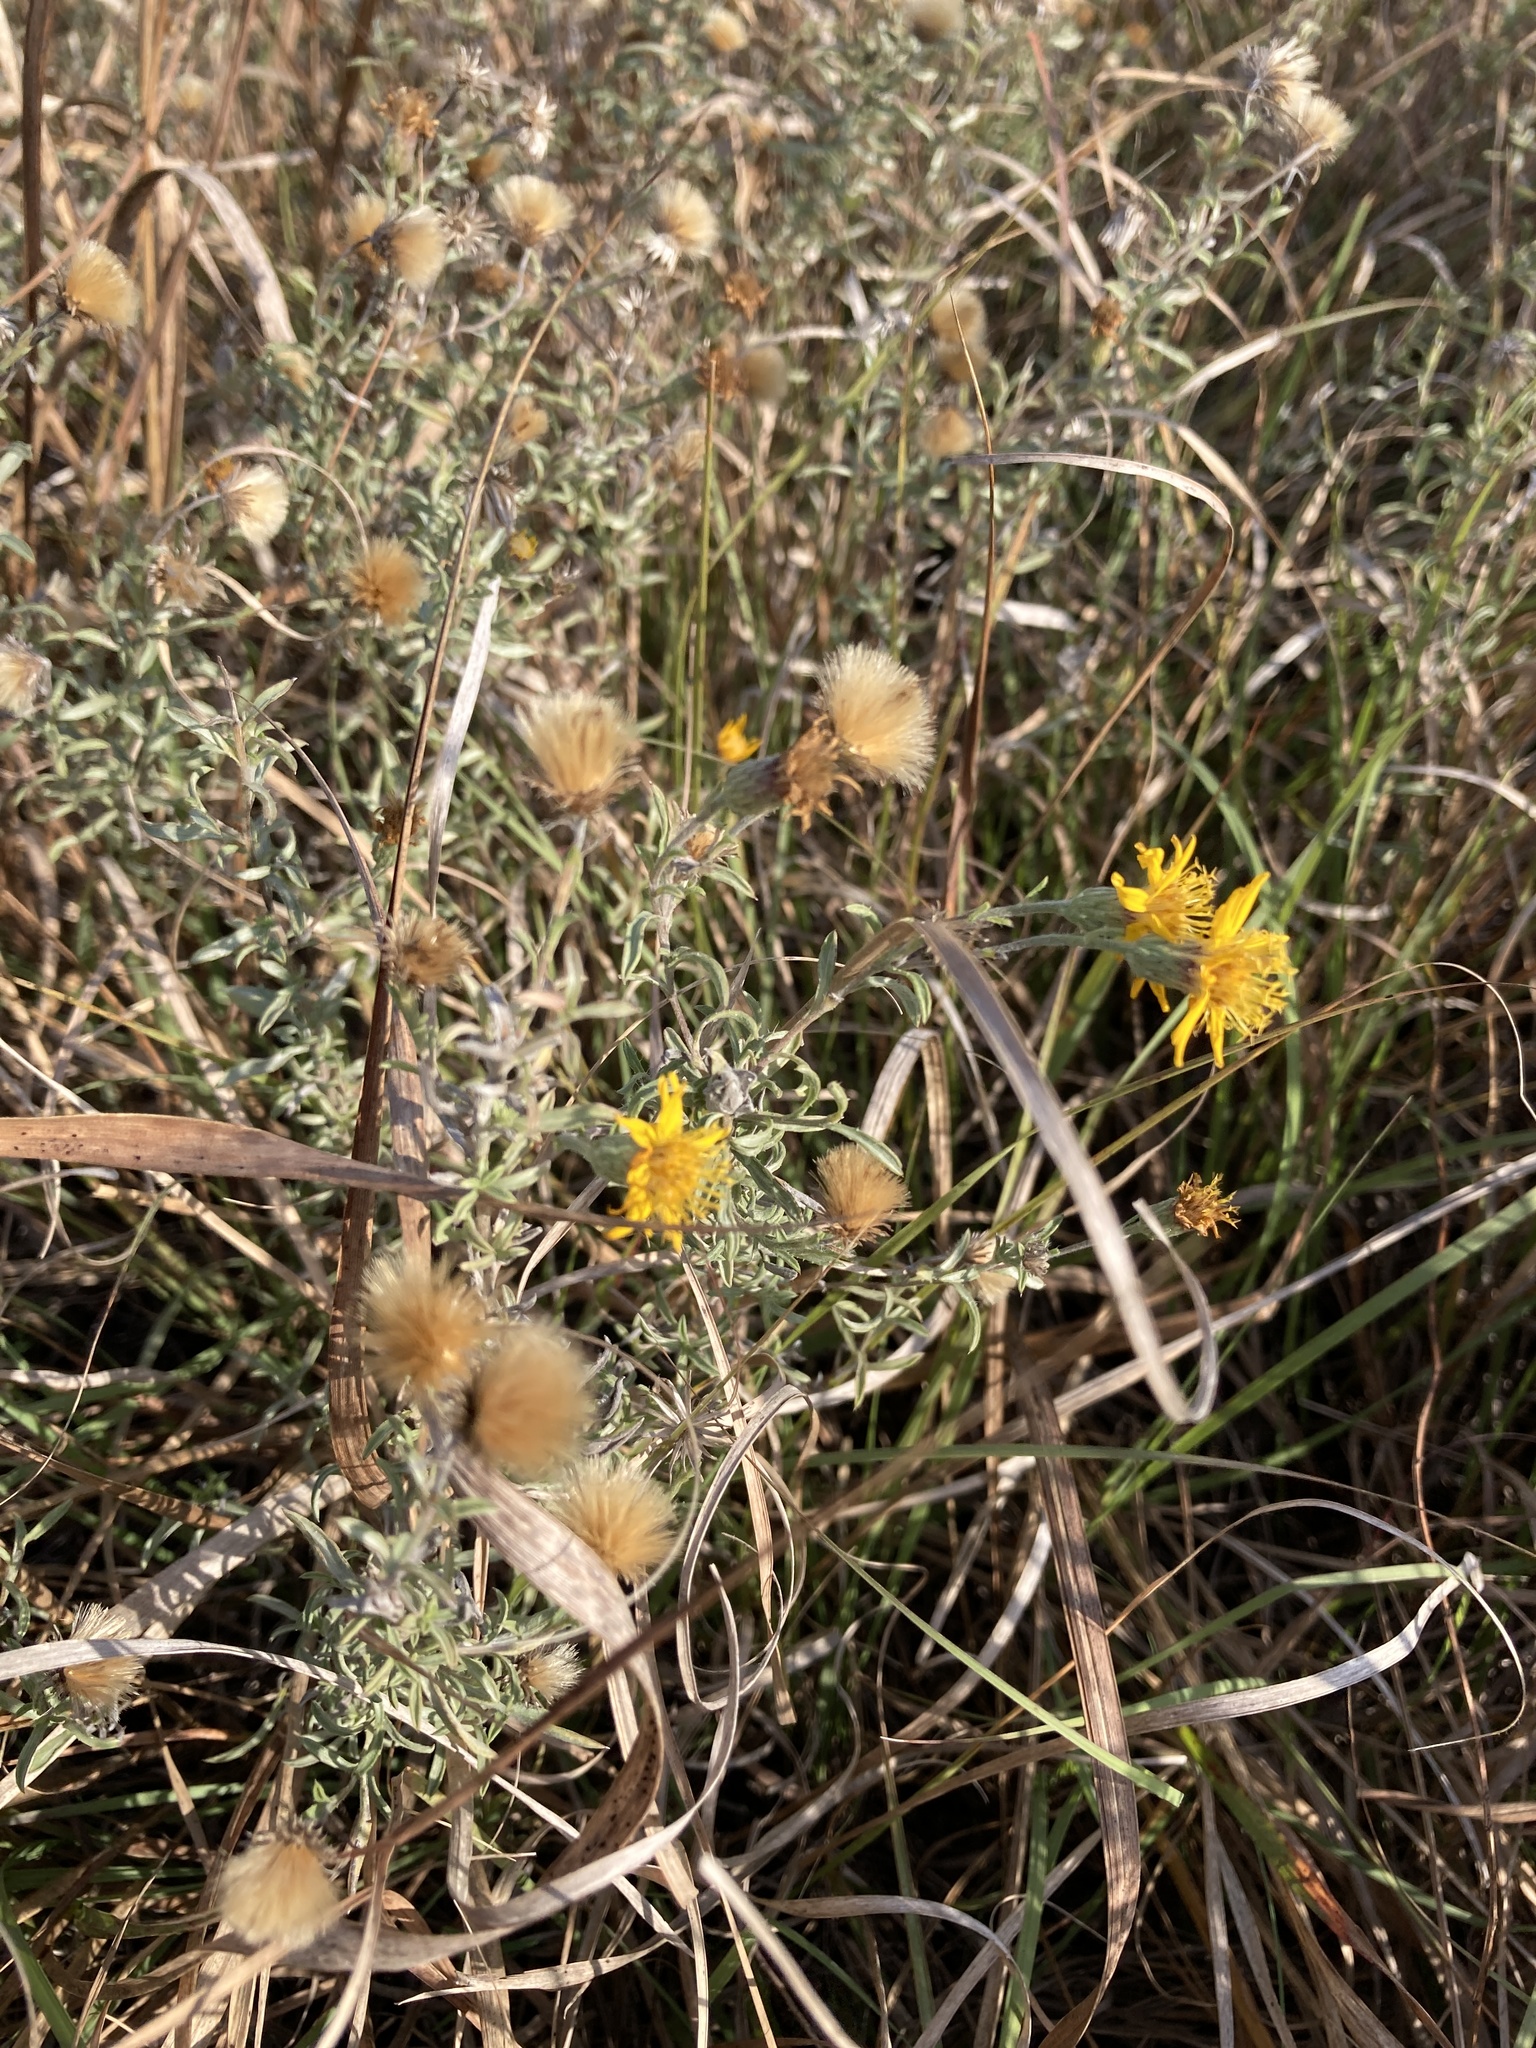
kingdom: Plantae
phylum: Tracheophyta
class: Magnoliopsida
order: Asterales
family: Asteraceae
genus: Heterotheca
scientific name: Heterotheca canescens
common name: Hoary golden-aster
